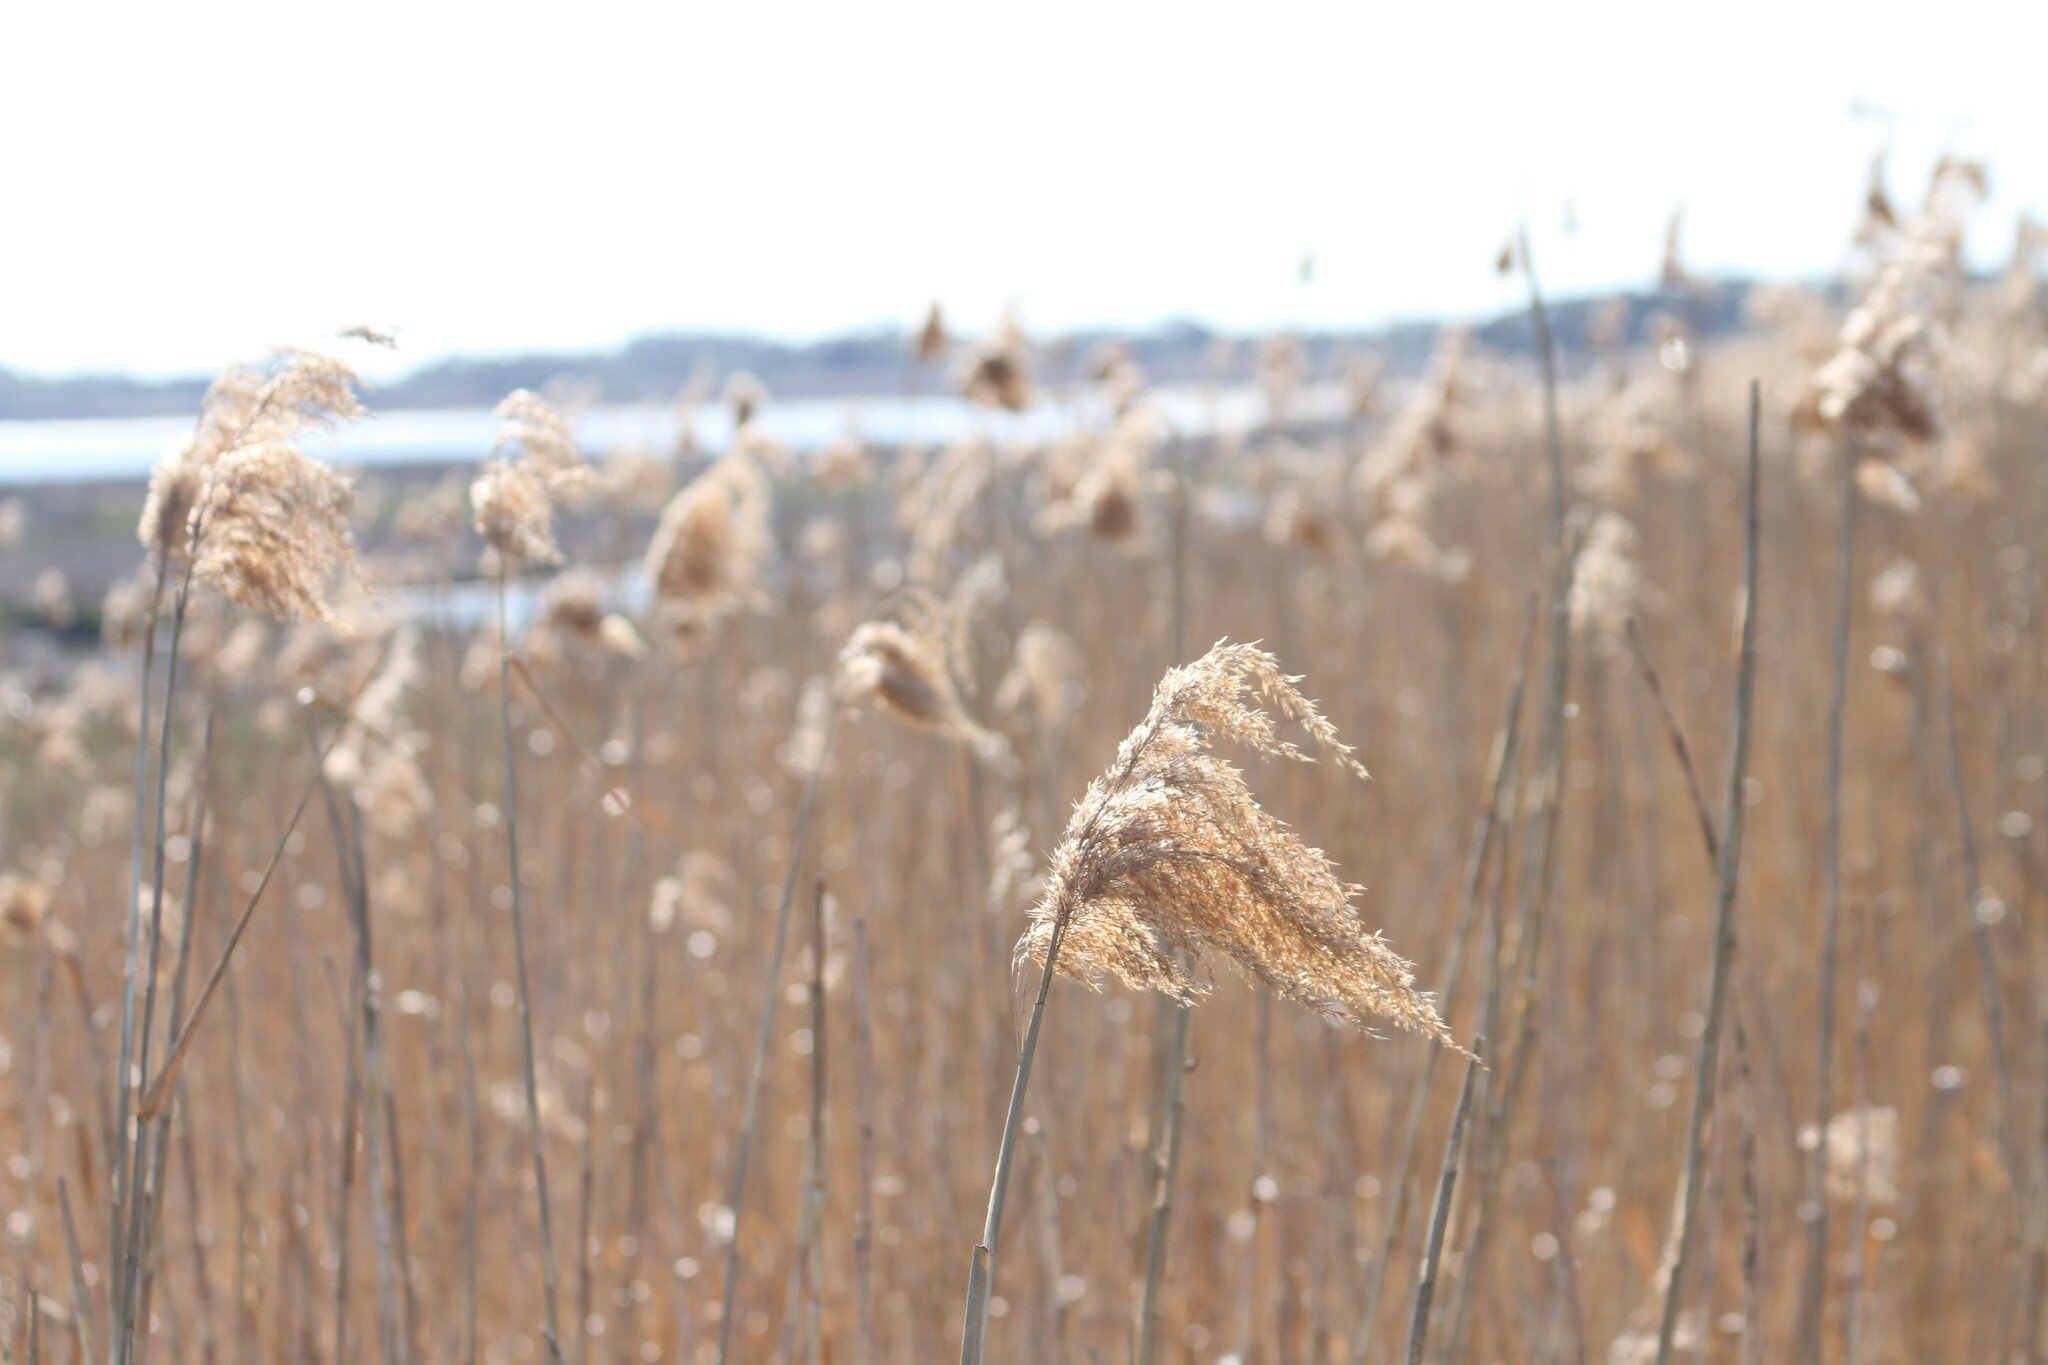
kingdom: Plantae
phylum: Tracheophyta
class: Liliopsida
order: Poales
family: Poaceae
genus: Phragmites
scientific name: Phragmites australis
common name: Common reed
